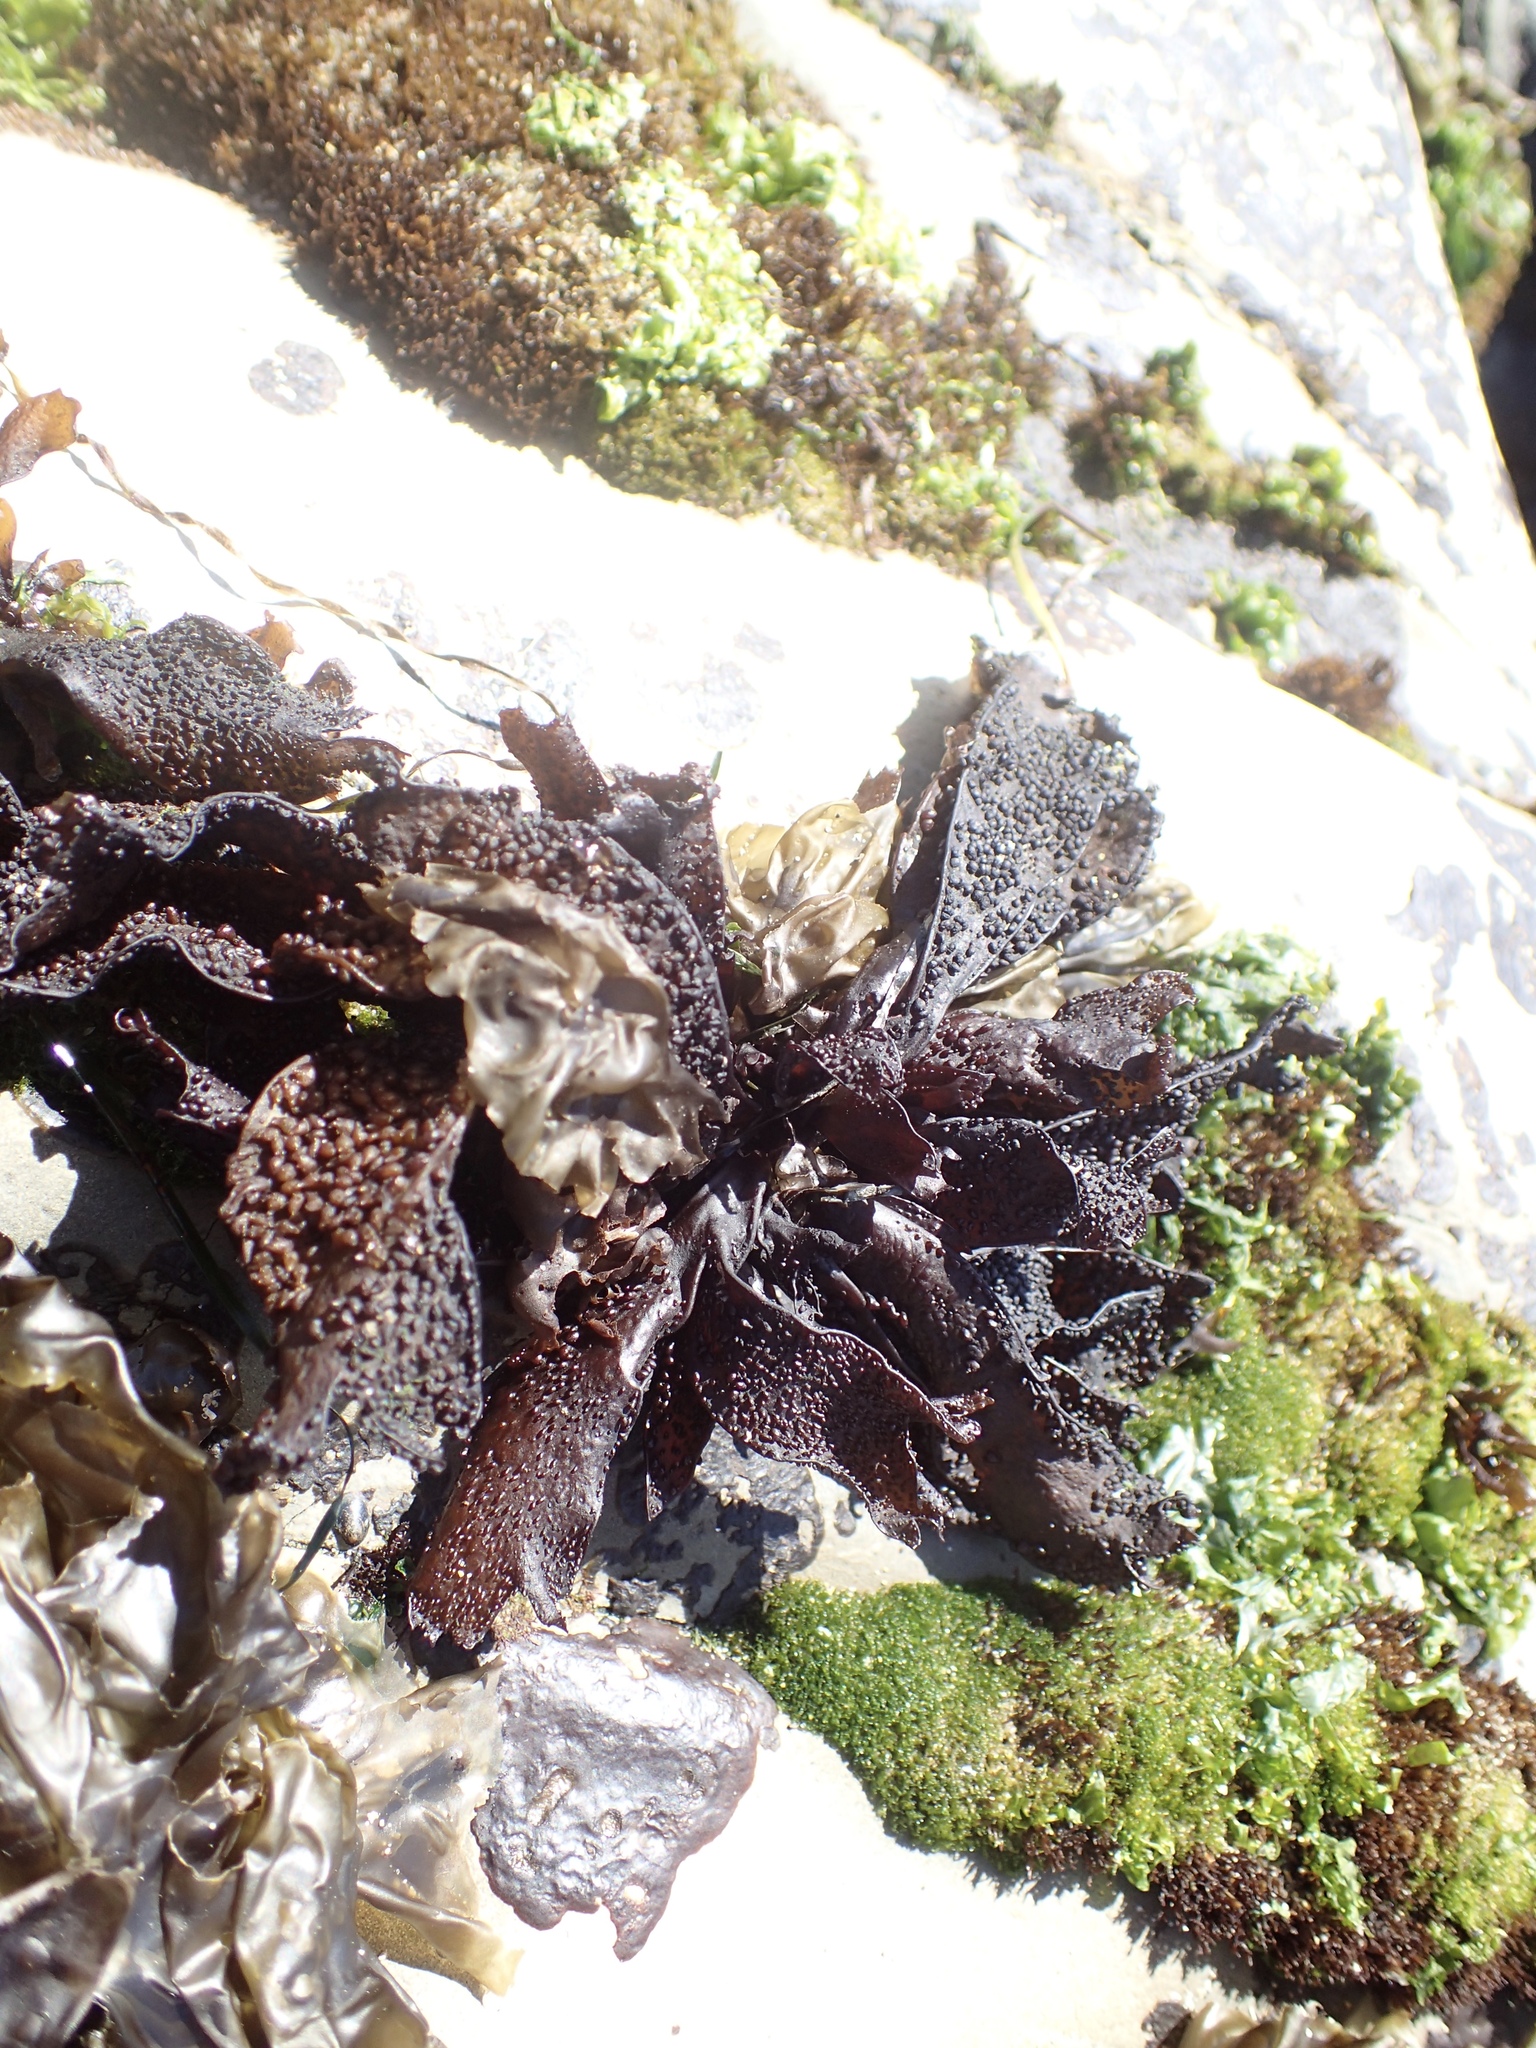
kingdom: Plantae
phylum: Rhodophyta
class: Florideophyceae
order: Gigartinales
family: Phyllophoraceae
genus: Mastocarpus
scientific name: Mastocarpus papillatus
